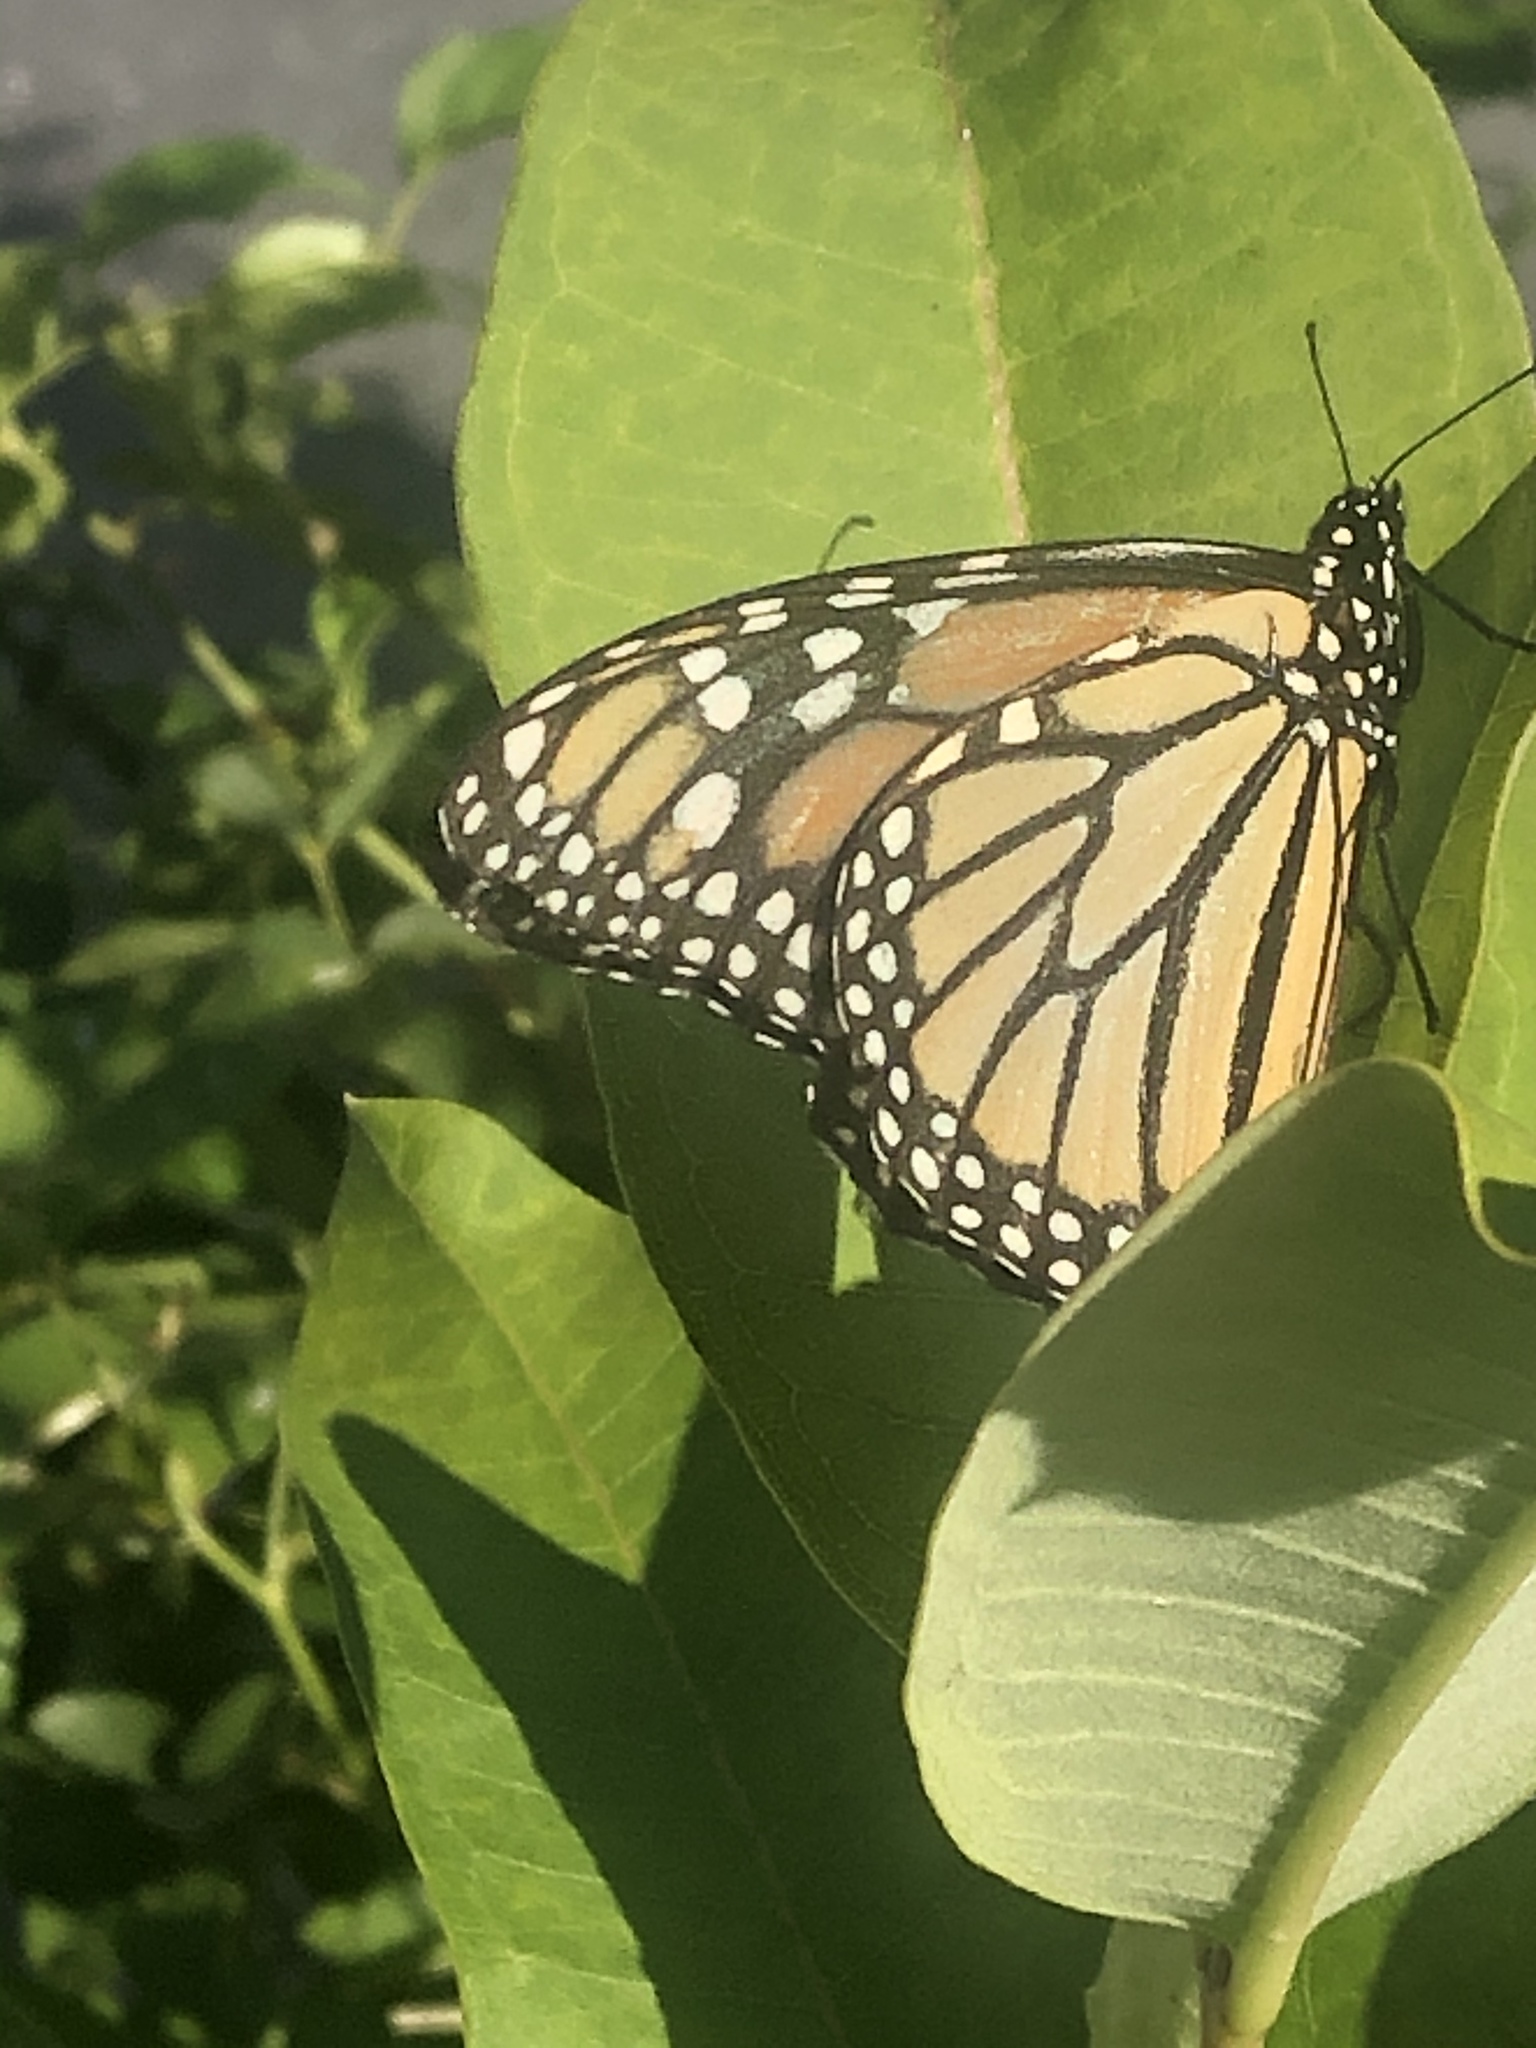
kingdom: Animalia
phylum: Arthropoda
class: Insecta
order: Lepidoptera
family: Nymphalidae
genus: Danaus
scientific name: Danaus plexippus
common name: Monarch
